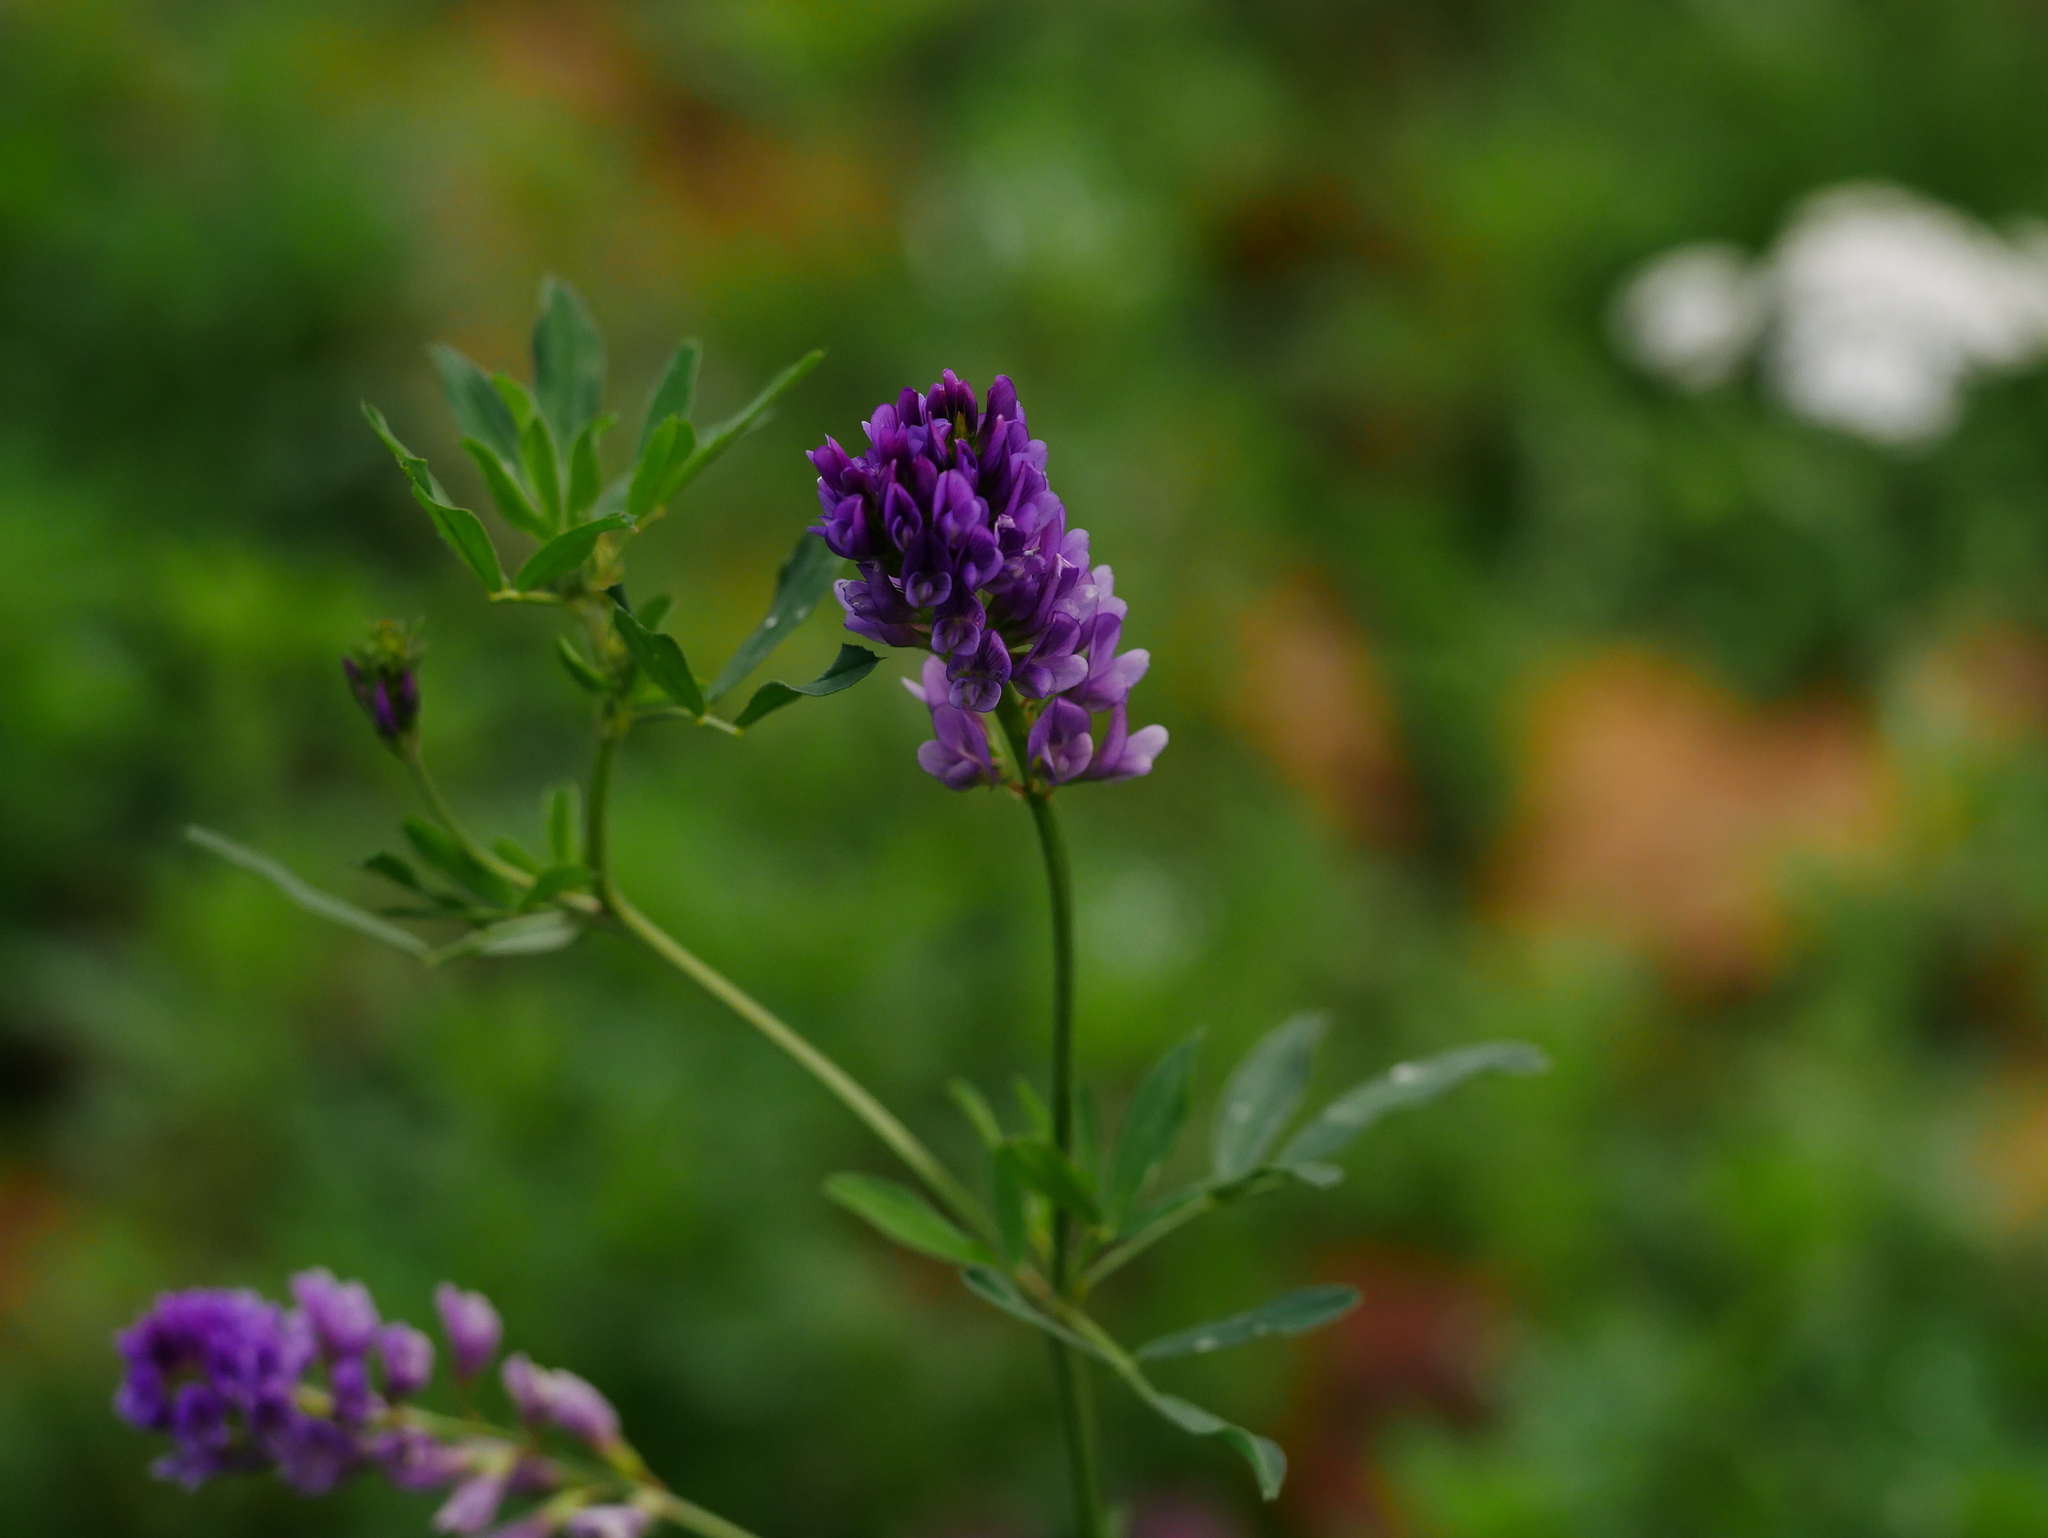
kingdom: Plantae
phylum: Tracheophyta
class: Magnoliopsida
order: Fabales
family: Fabaceae
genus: Medicago
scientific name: Medicago sativa
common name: Alfalfa
